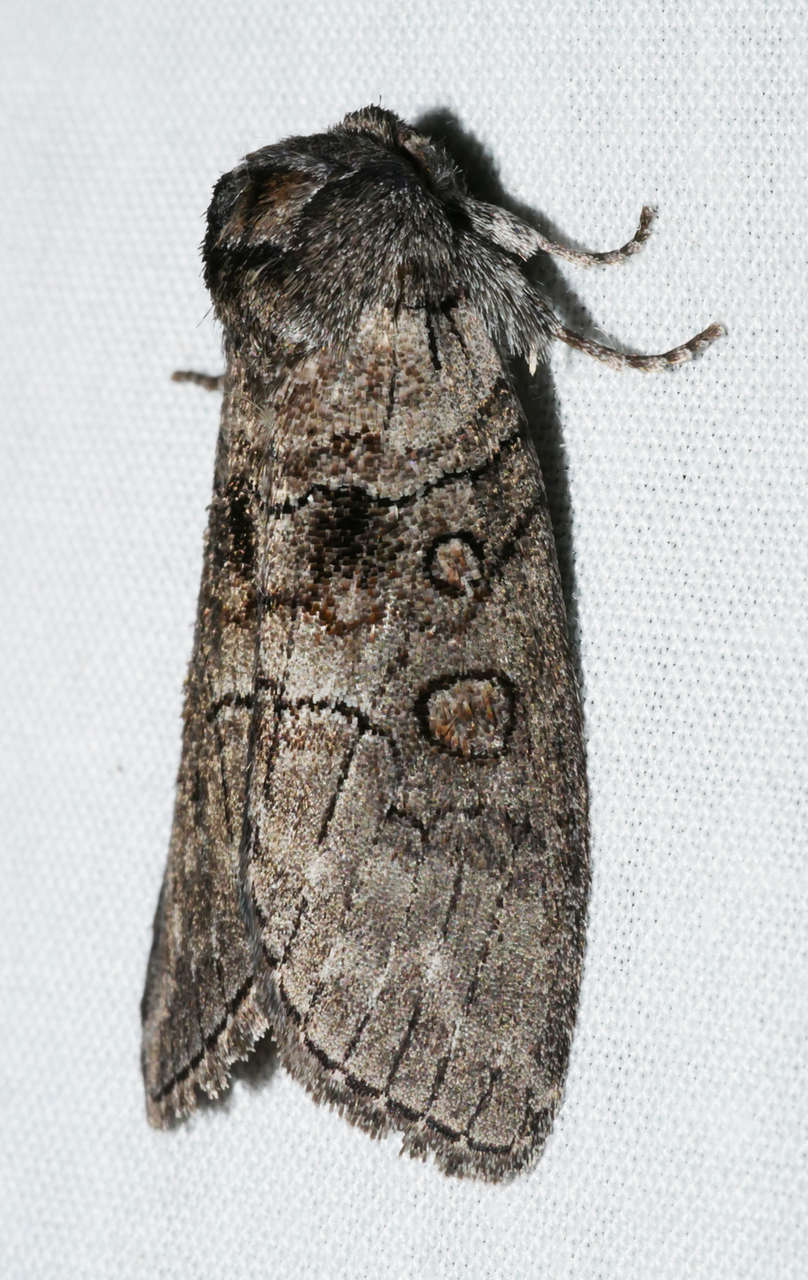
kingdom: Animalia
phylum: Arthropoda
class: Insecta
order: Lepidoptera
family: Oenosandridae
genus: Discophlebia
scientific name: Discophlebia celaena
